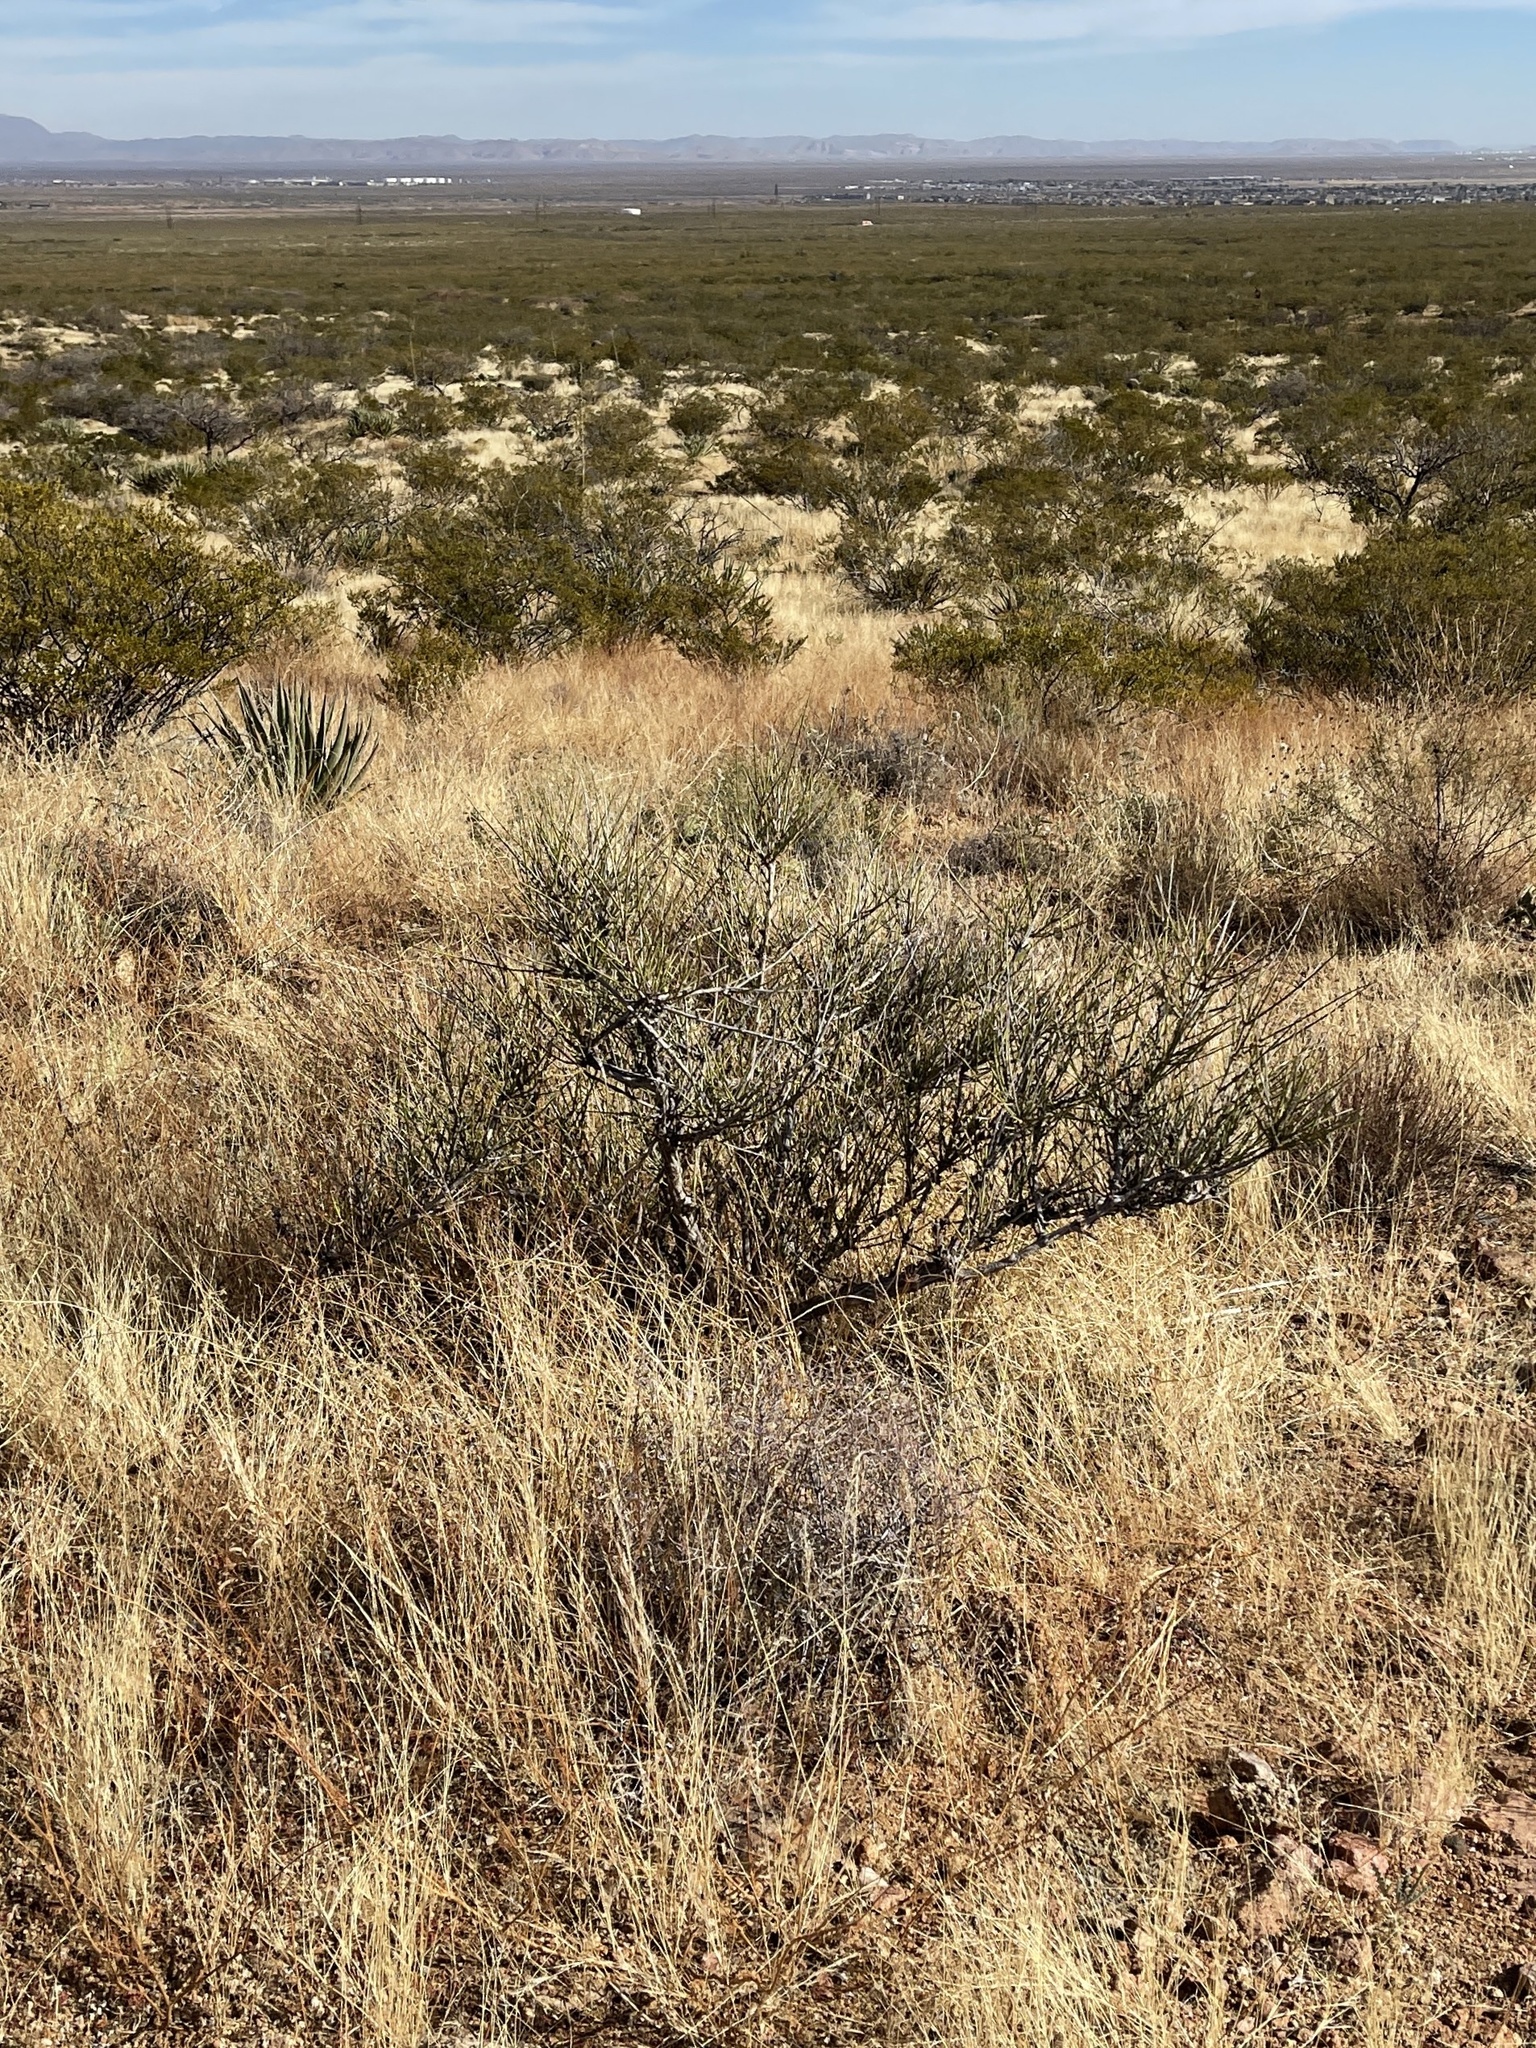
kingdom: Plantae
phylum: Tracheophyta
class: Gnetopsida
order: Ephedrales
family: Ephedraceae
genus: Ephedra
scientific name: Ephedra trifurca
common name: Mexican-tea
